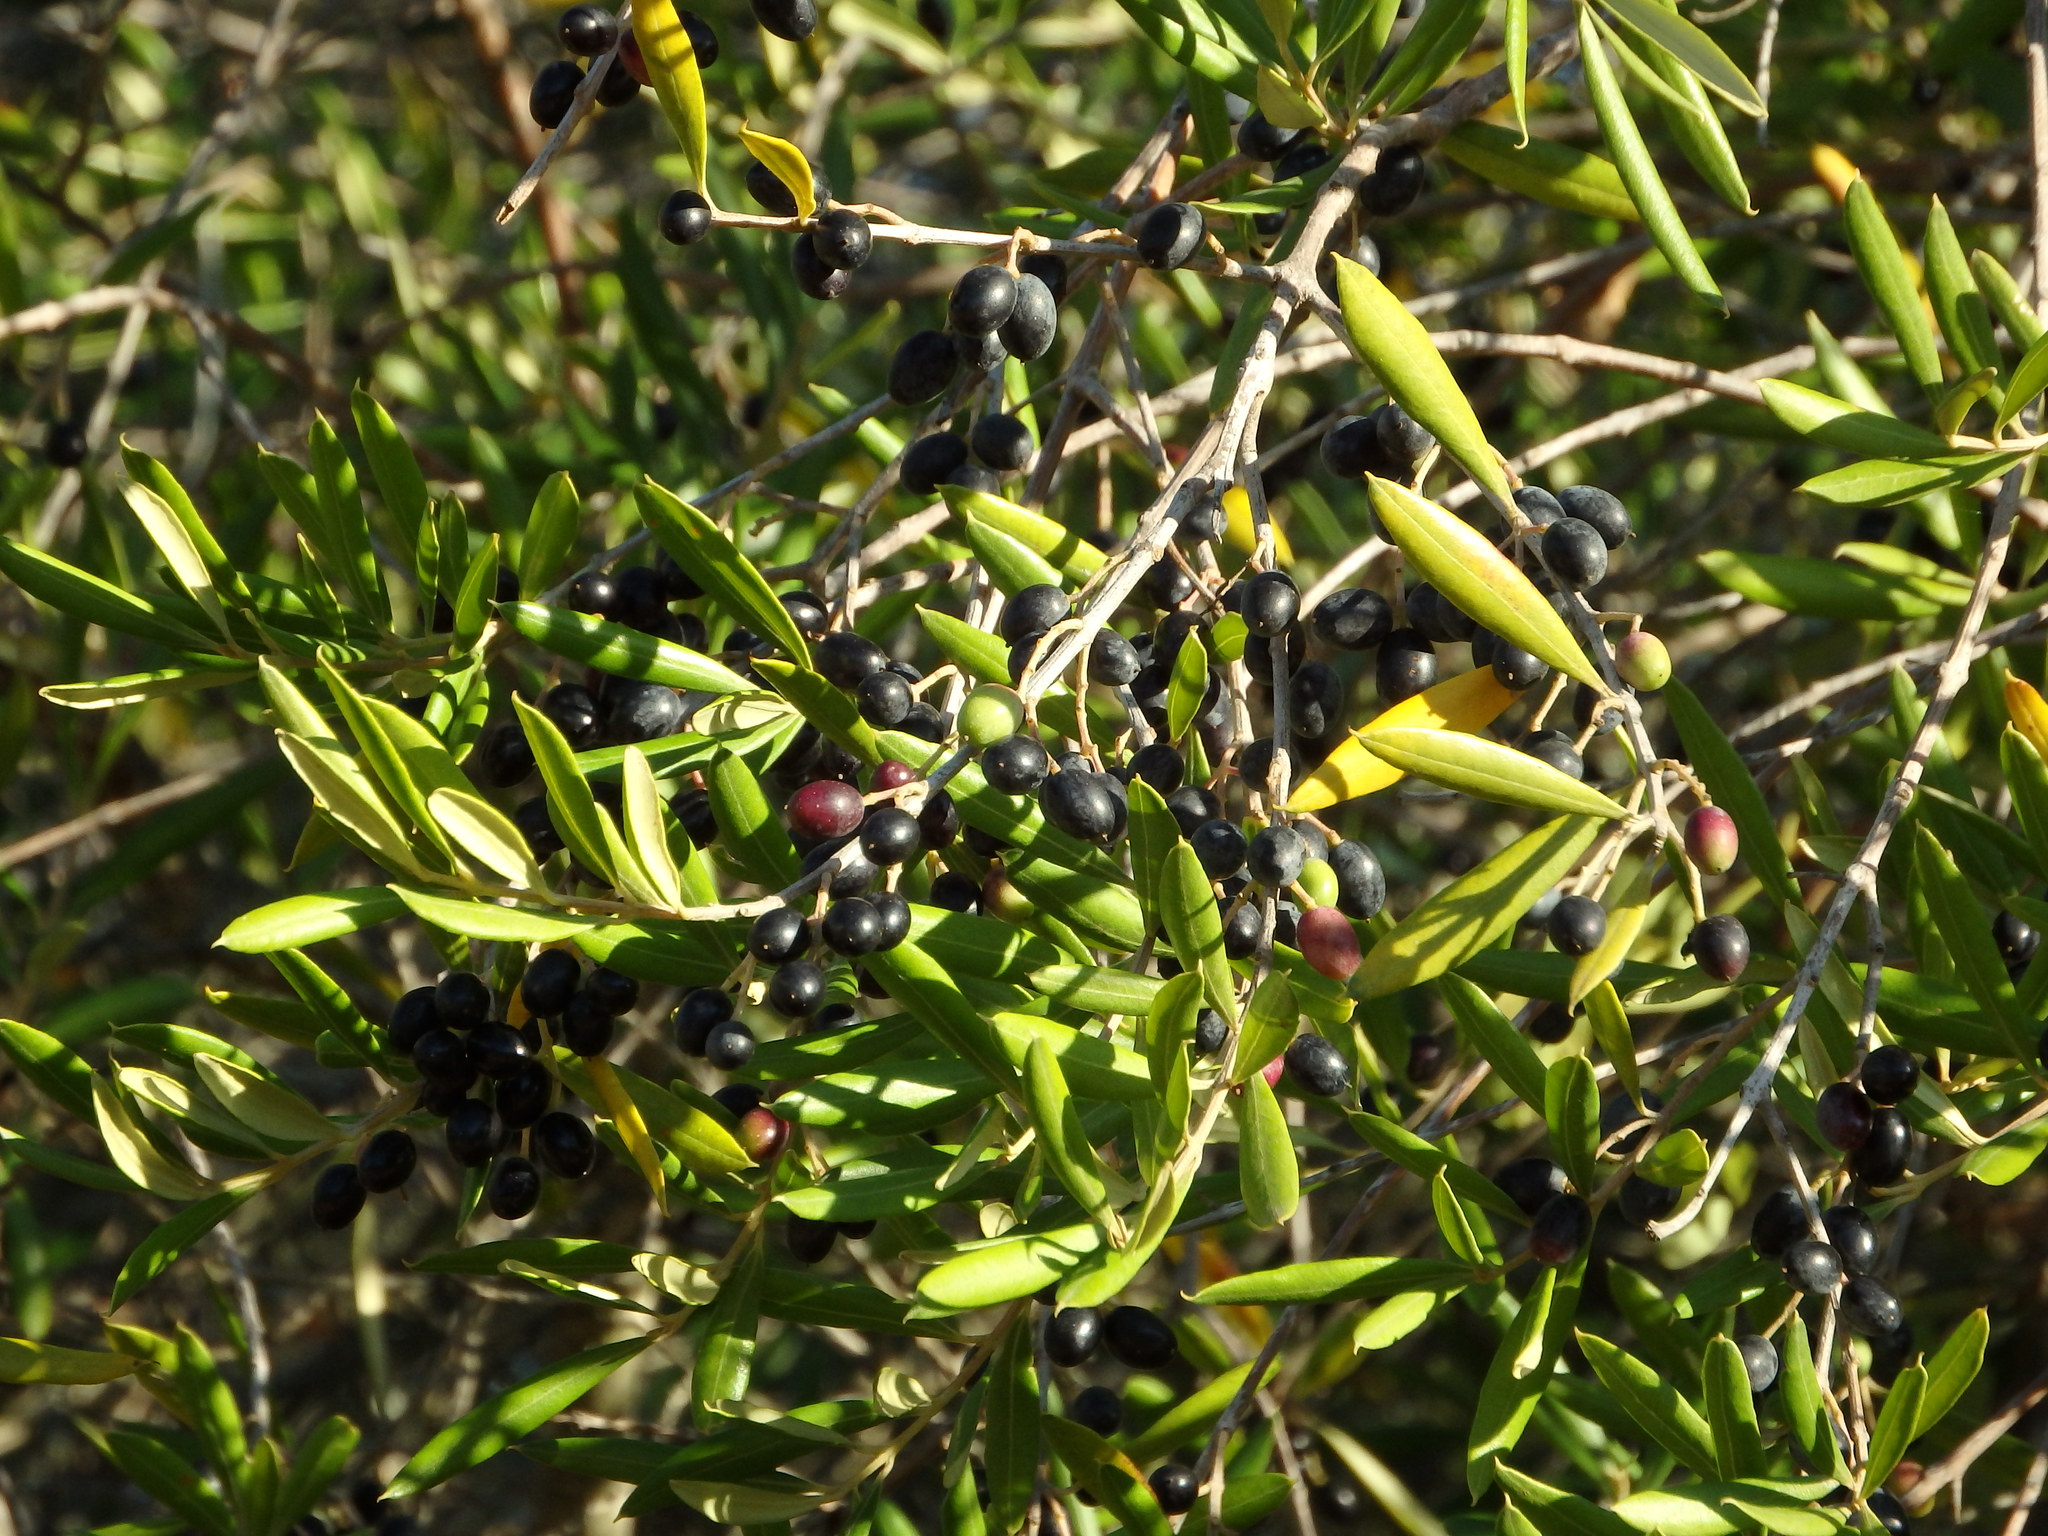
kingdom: Plantae
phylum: Tracheophyta
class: Magnoliopsida
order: Lamiales
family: Oleaceae
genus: Olea
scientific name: Olea europaea
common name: Olive
